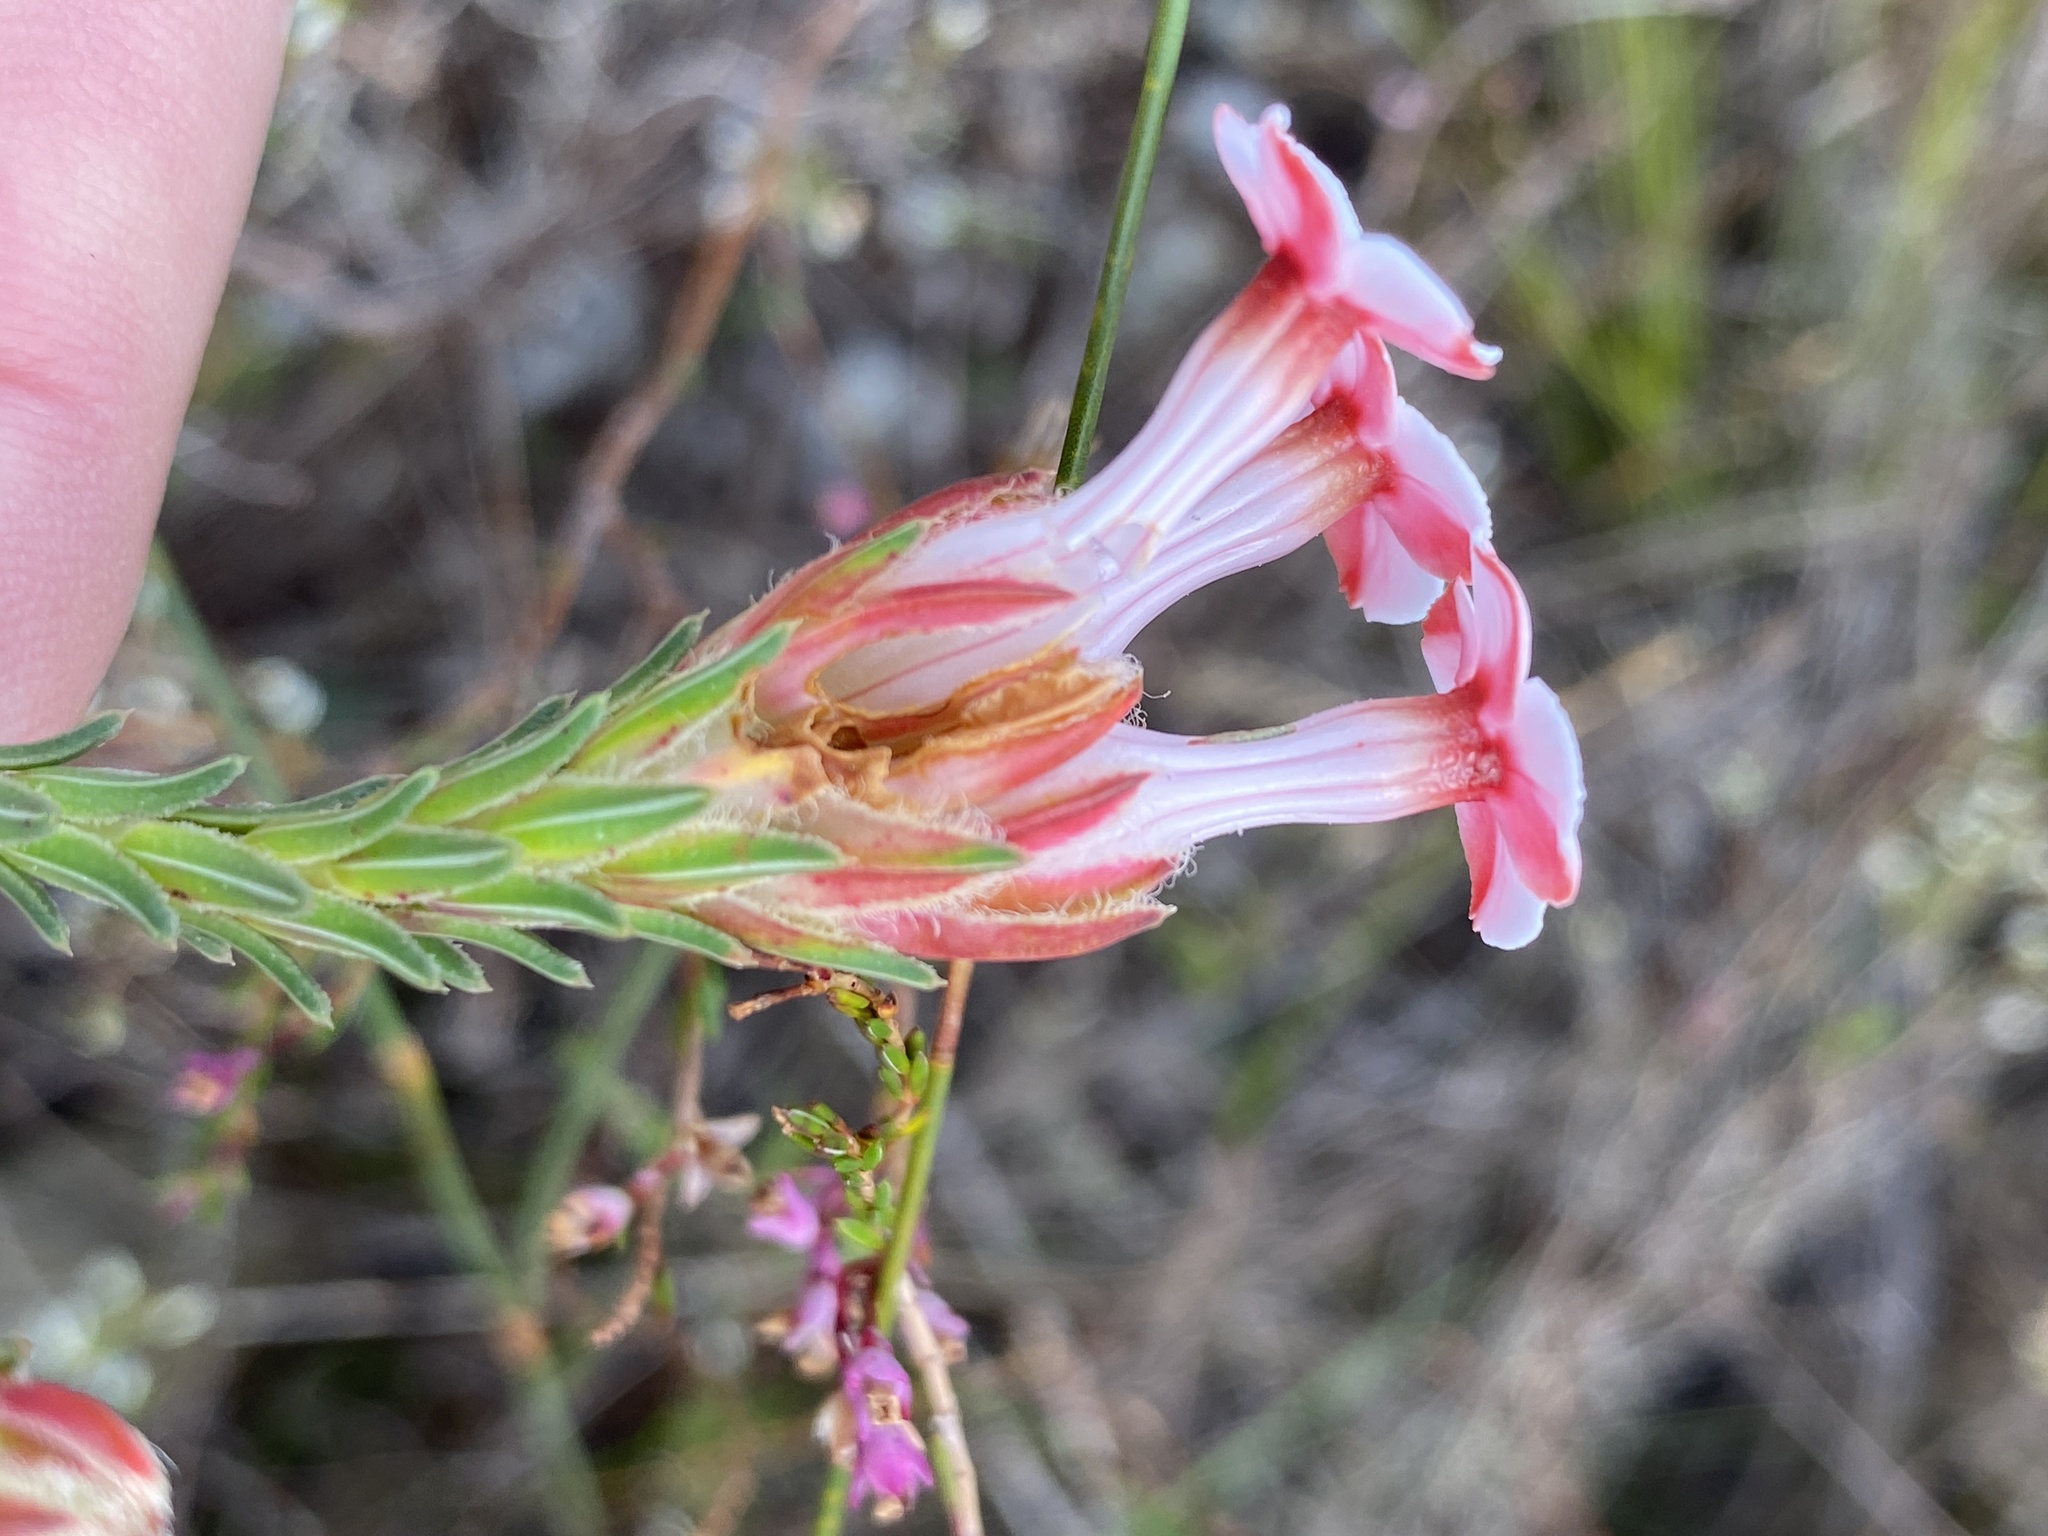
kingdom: Plantae
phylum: Tracheophyta
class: Magnoliopsida
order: Ericales
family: Ericaceae
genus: Erica
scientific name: Erica ampullacea
